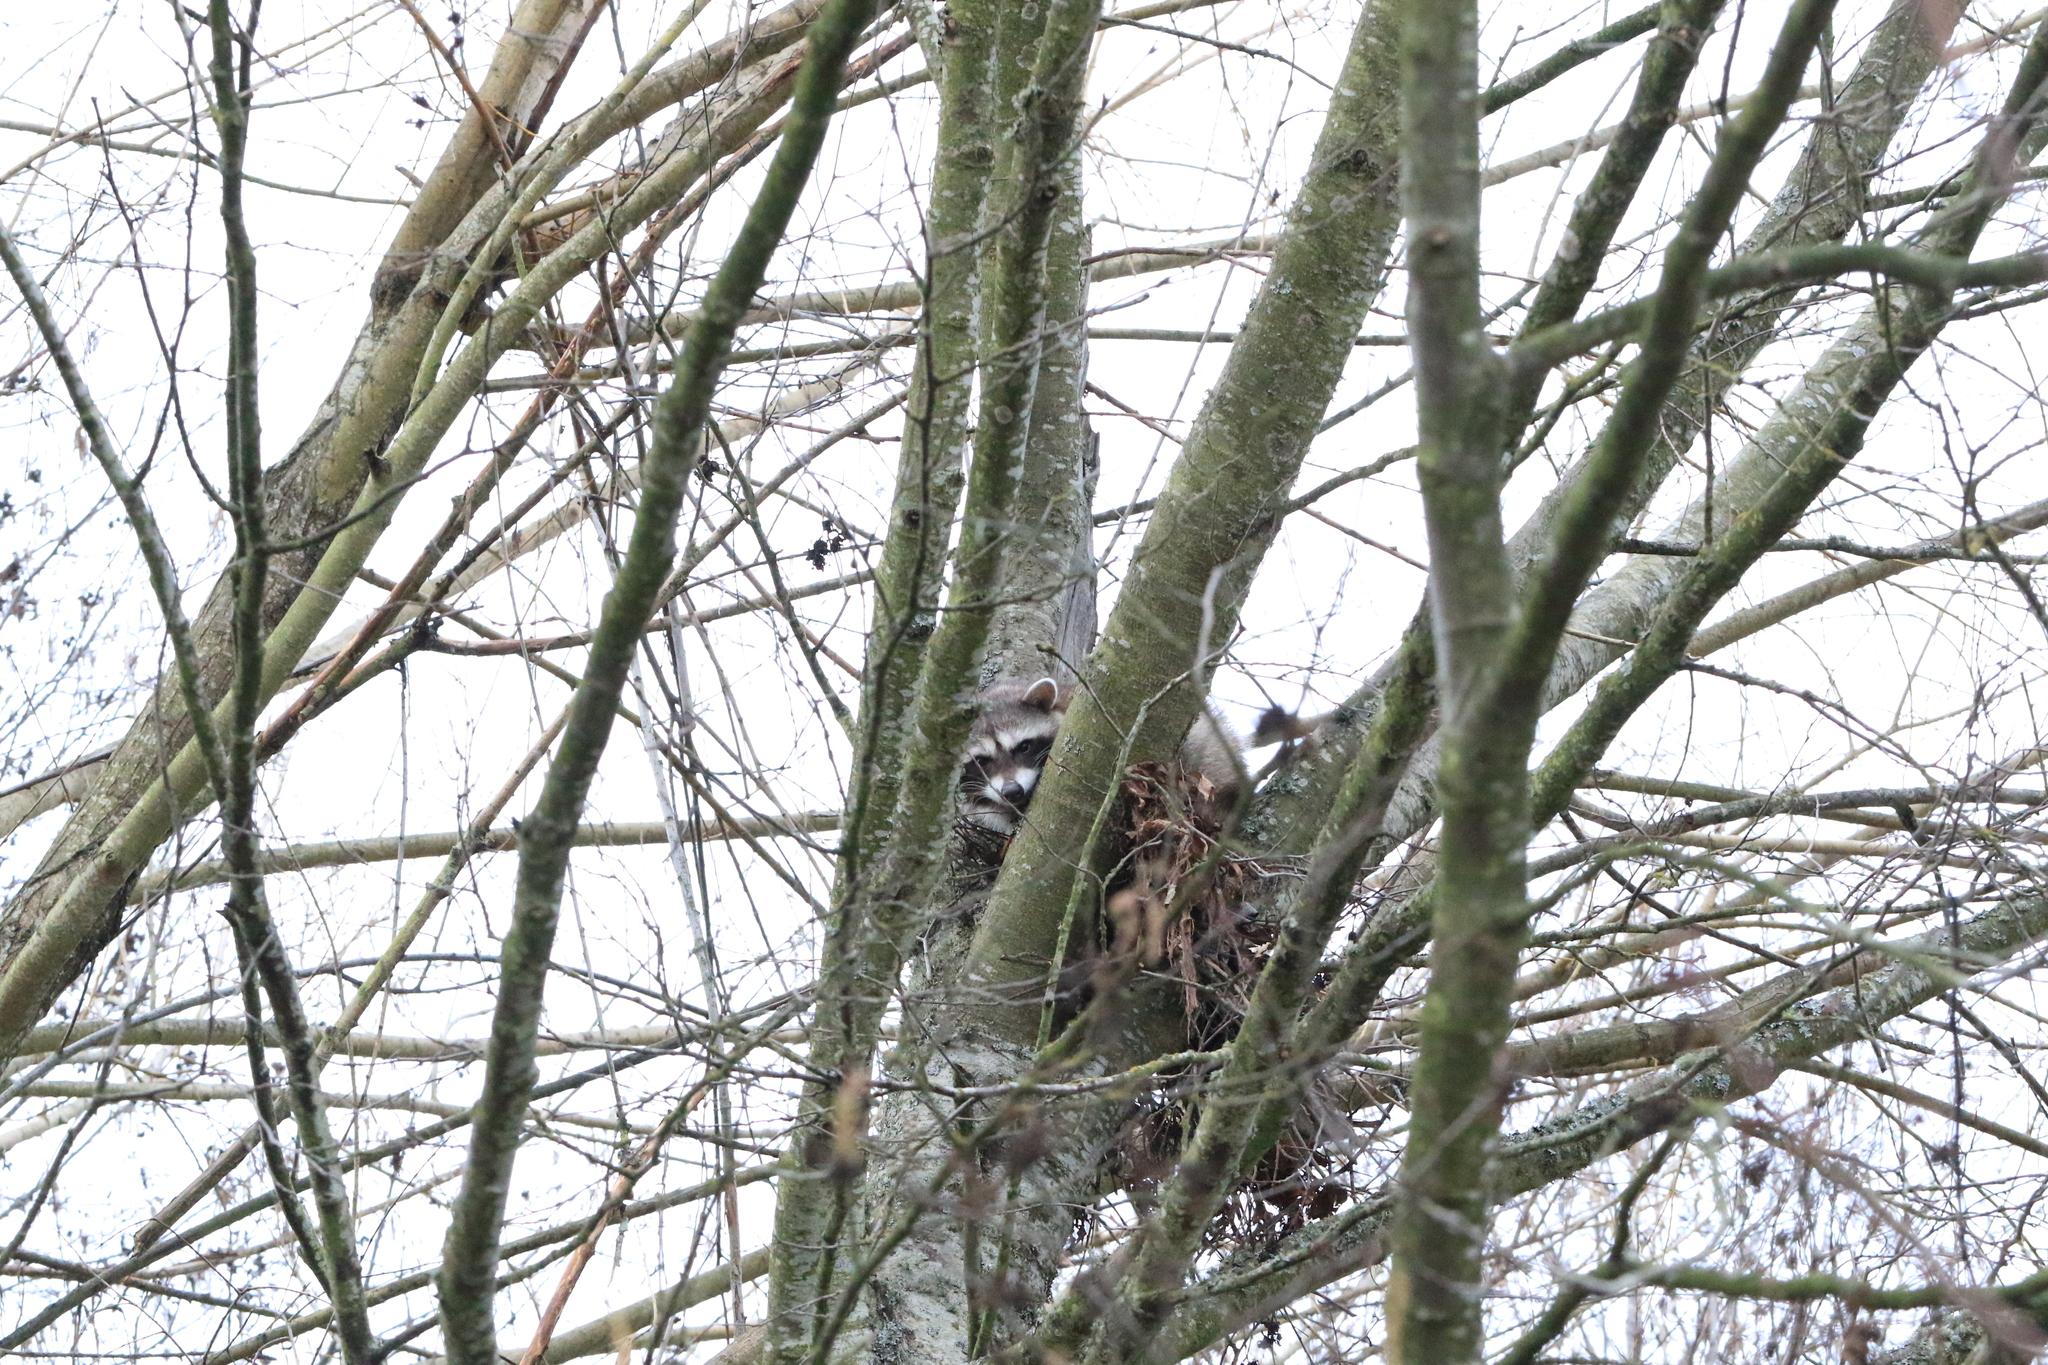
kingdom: Animalia
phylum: Chordata
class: Mammalia
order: Carnivora
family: Procyonidae
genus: Procyon
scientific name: Procyon lotor
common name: Raccoon
